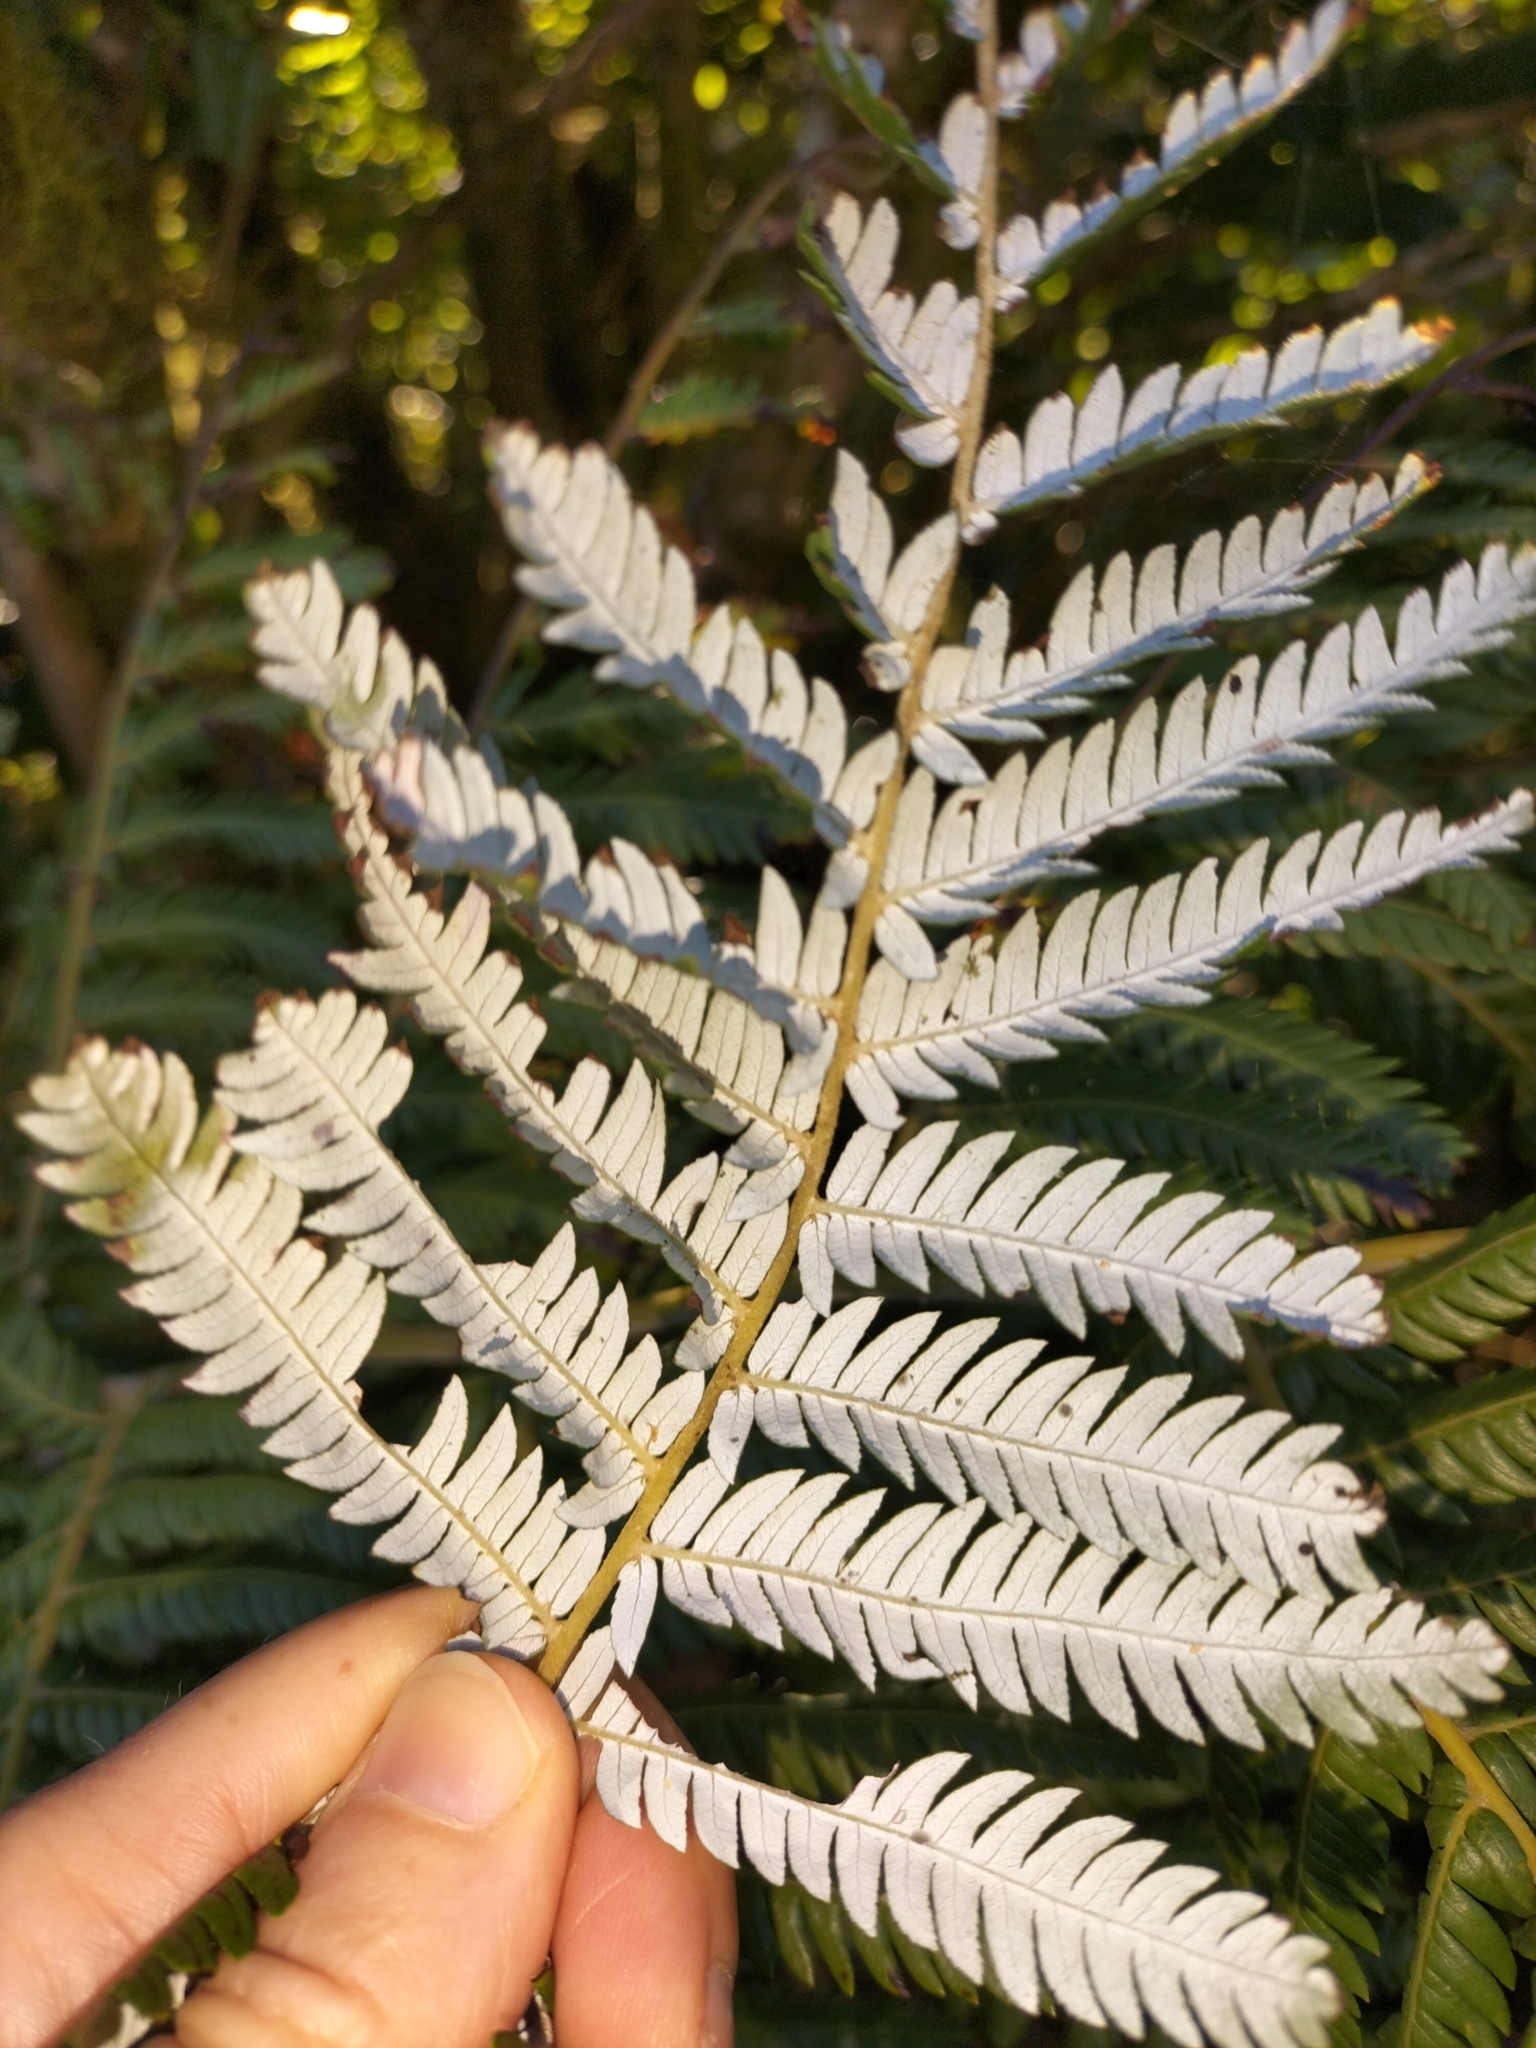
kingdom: Plantae
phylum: Tracheophyta
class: Polypodiopsida
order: Cyatheales
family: Cyatheaceae
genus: Alsophila
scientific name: Alsophila dealbata
